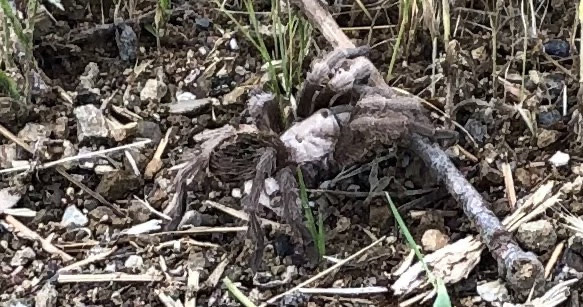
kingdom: Animalia
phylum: Arthropoda
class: Arachnida
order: Araneae
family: Theraphosidae
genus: Aphonopelma
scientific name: Aphonopelma iodius
